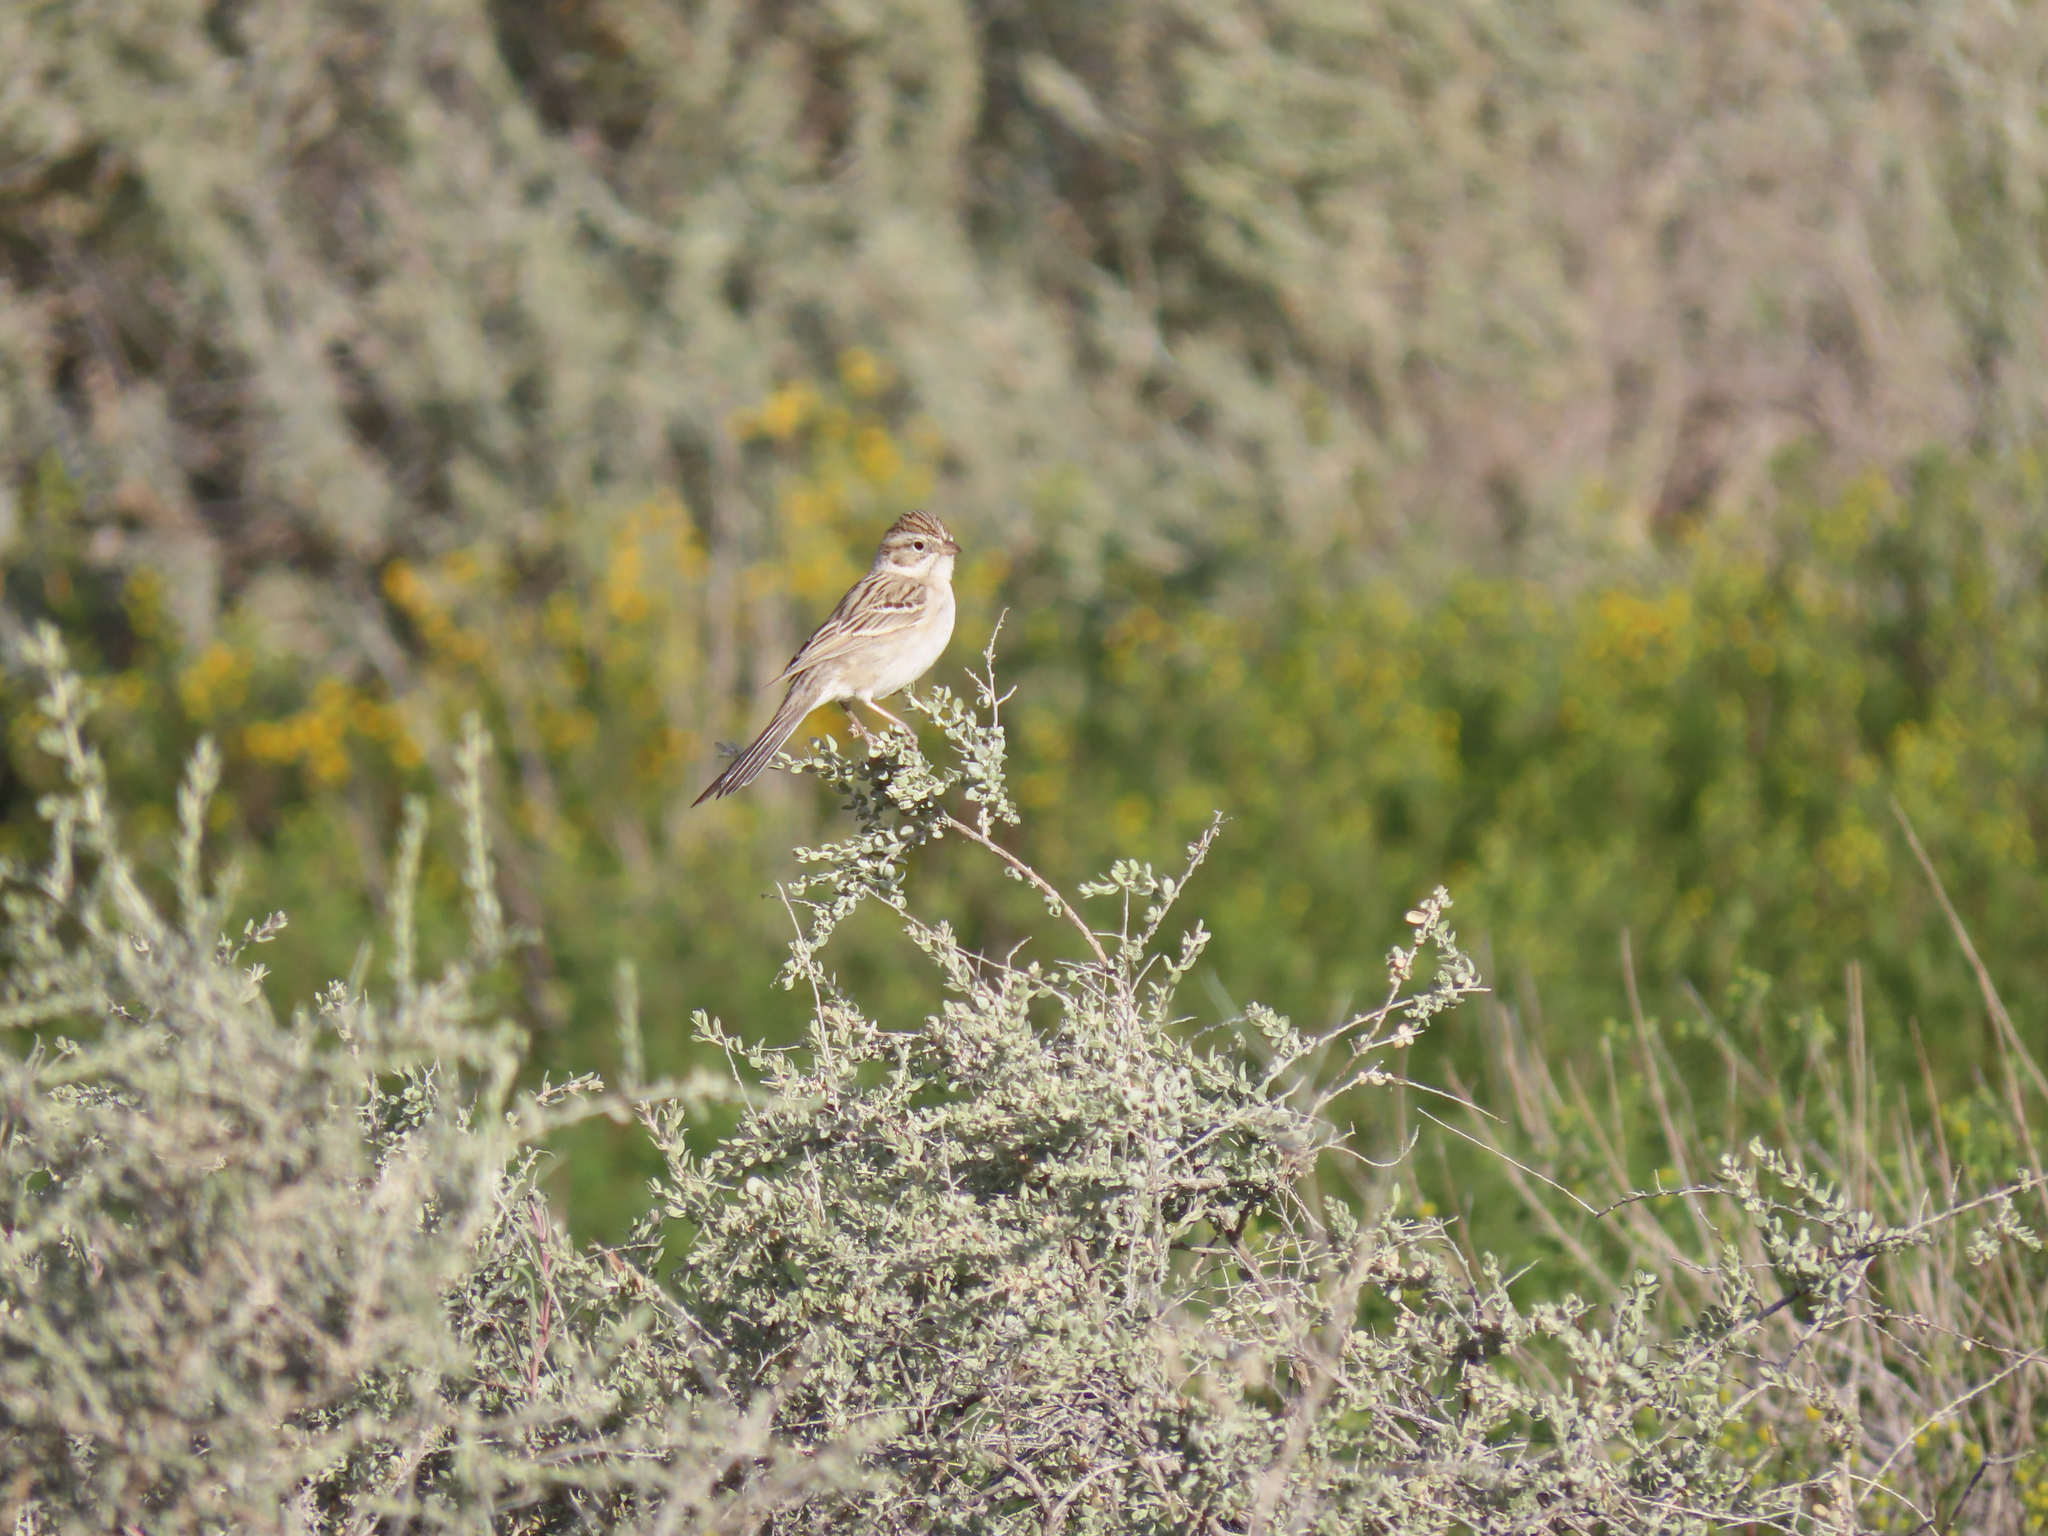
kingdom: Animalia
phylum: Chordata
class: Aves
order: Passeriformes
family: Passerellidae
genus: Spizella
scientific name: Spizella breweri
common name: Brewer's sparrow
